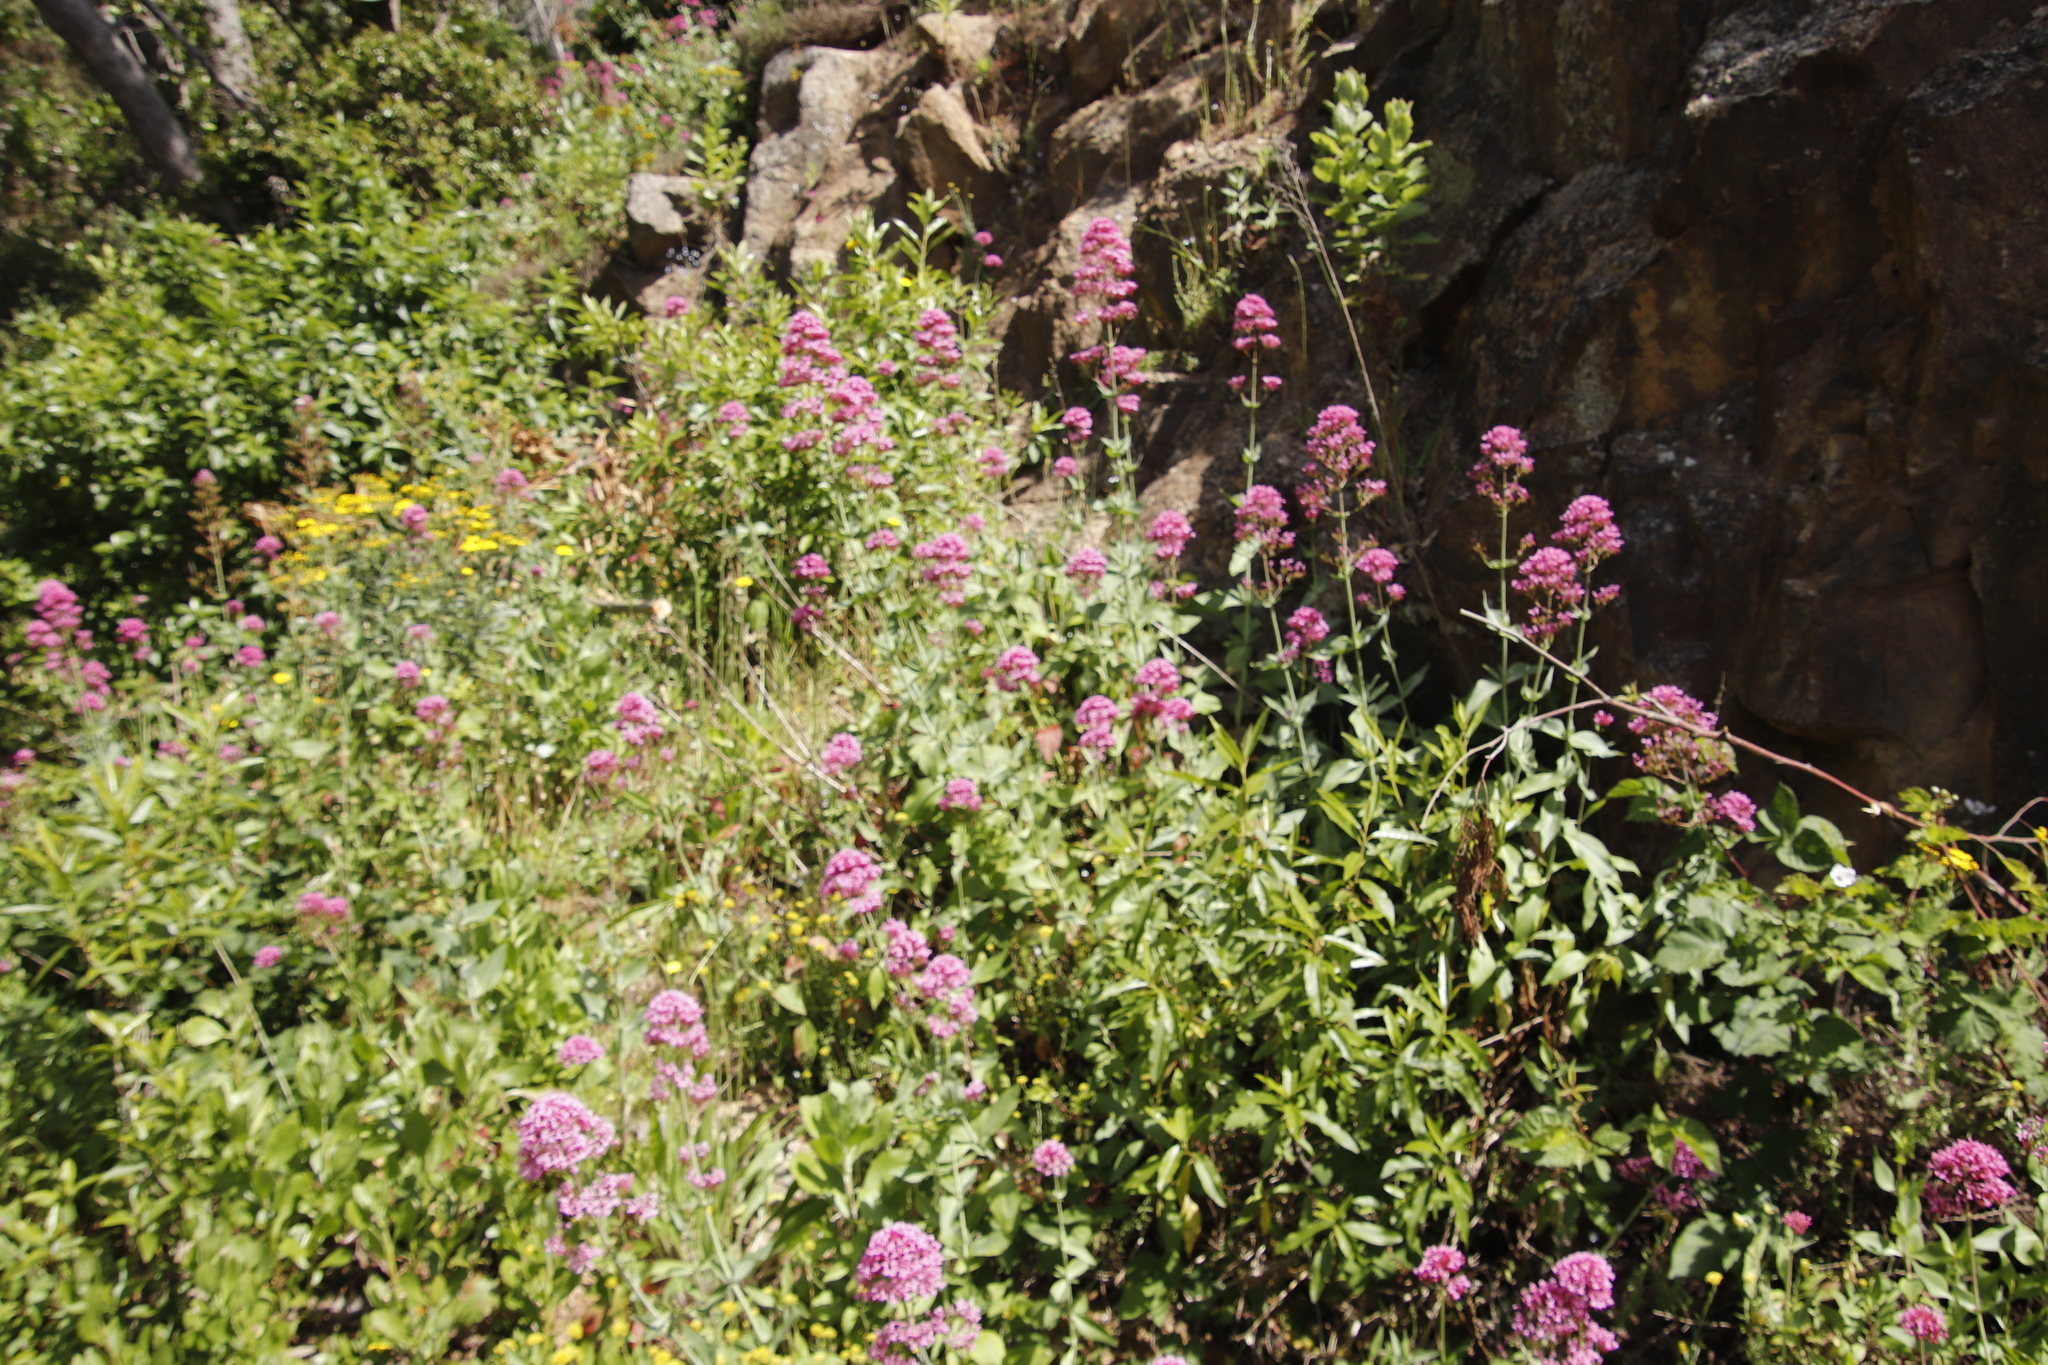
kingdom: Plantae
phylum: Tracheophyta
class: Magnoliopsida
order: Dipsacales
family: Caprifoliaceae
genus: Centranthus
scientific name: Centranthus ruber
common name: Red valerian
